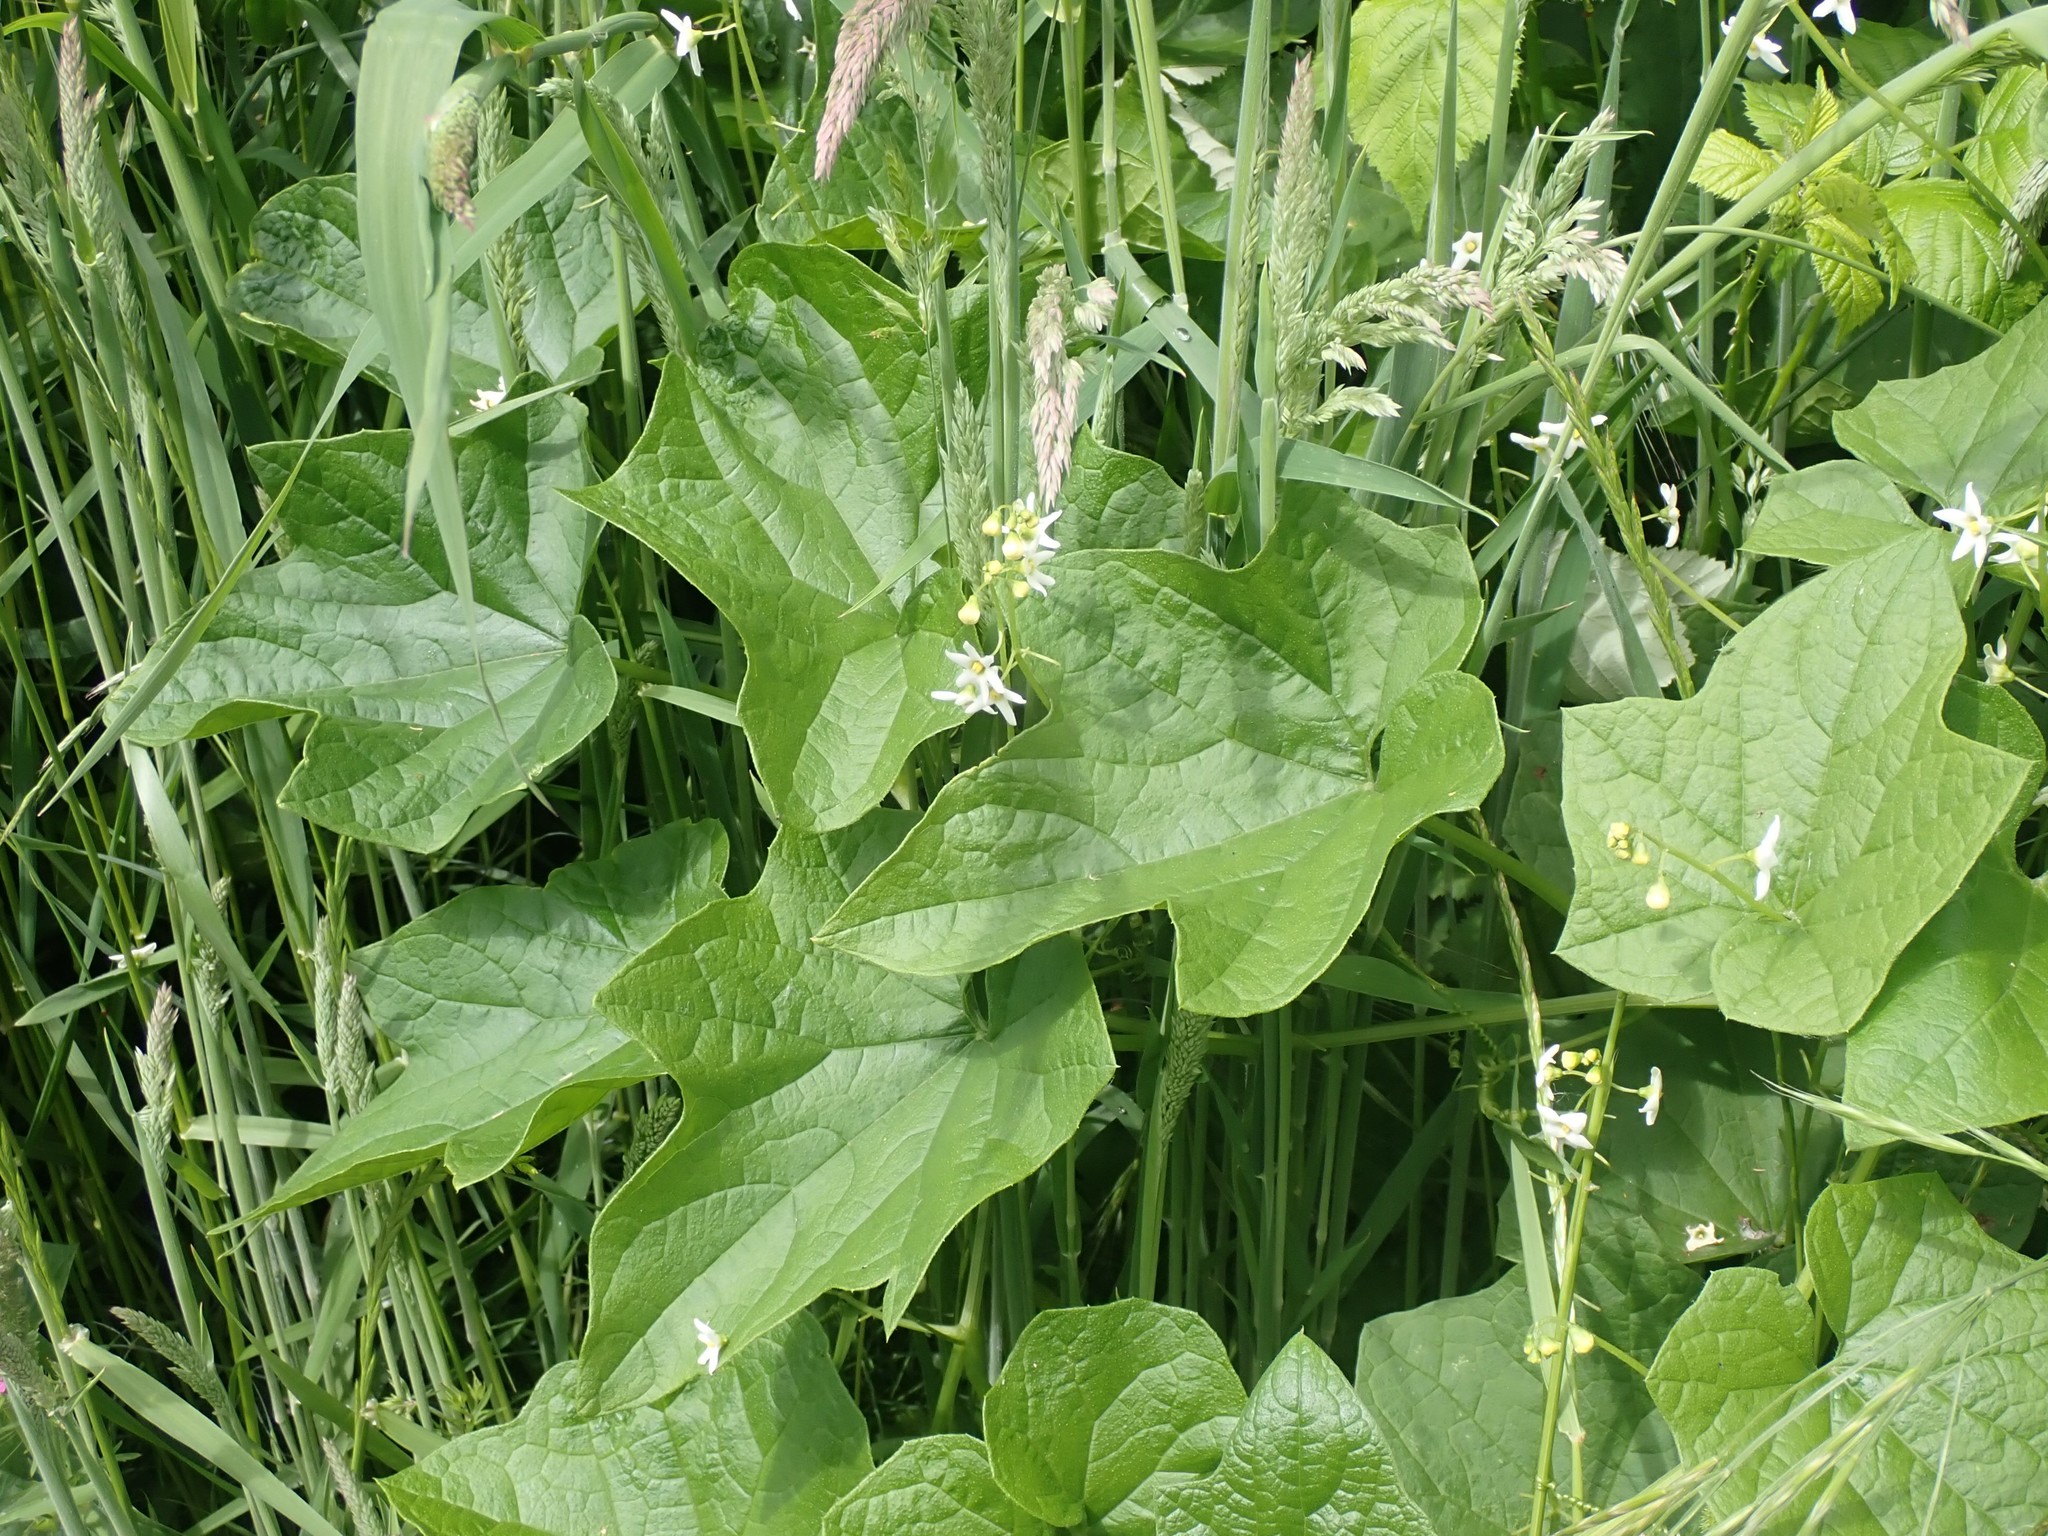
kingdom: Plantae
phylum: Tracheophyta
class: Magnoliopsida
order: Cucurbitales
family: Cucurbitaceae
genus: Marah
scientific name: Marah oregana
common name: Coastal manroot
